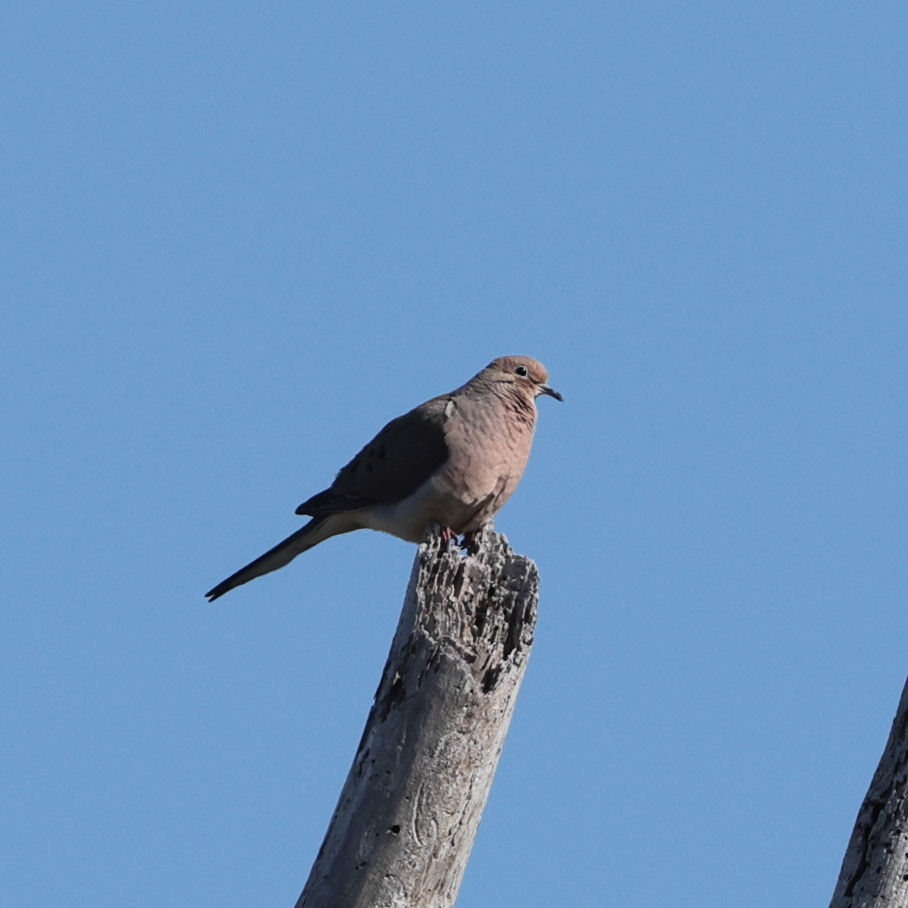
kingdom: Animalia
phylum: Chordata
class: Aves
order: Columbiformes
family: Columbidae
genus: Zenaida
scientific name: Zenaida macroura
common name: Mourning dove
